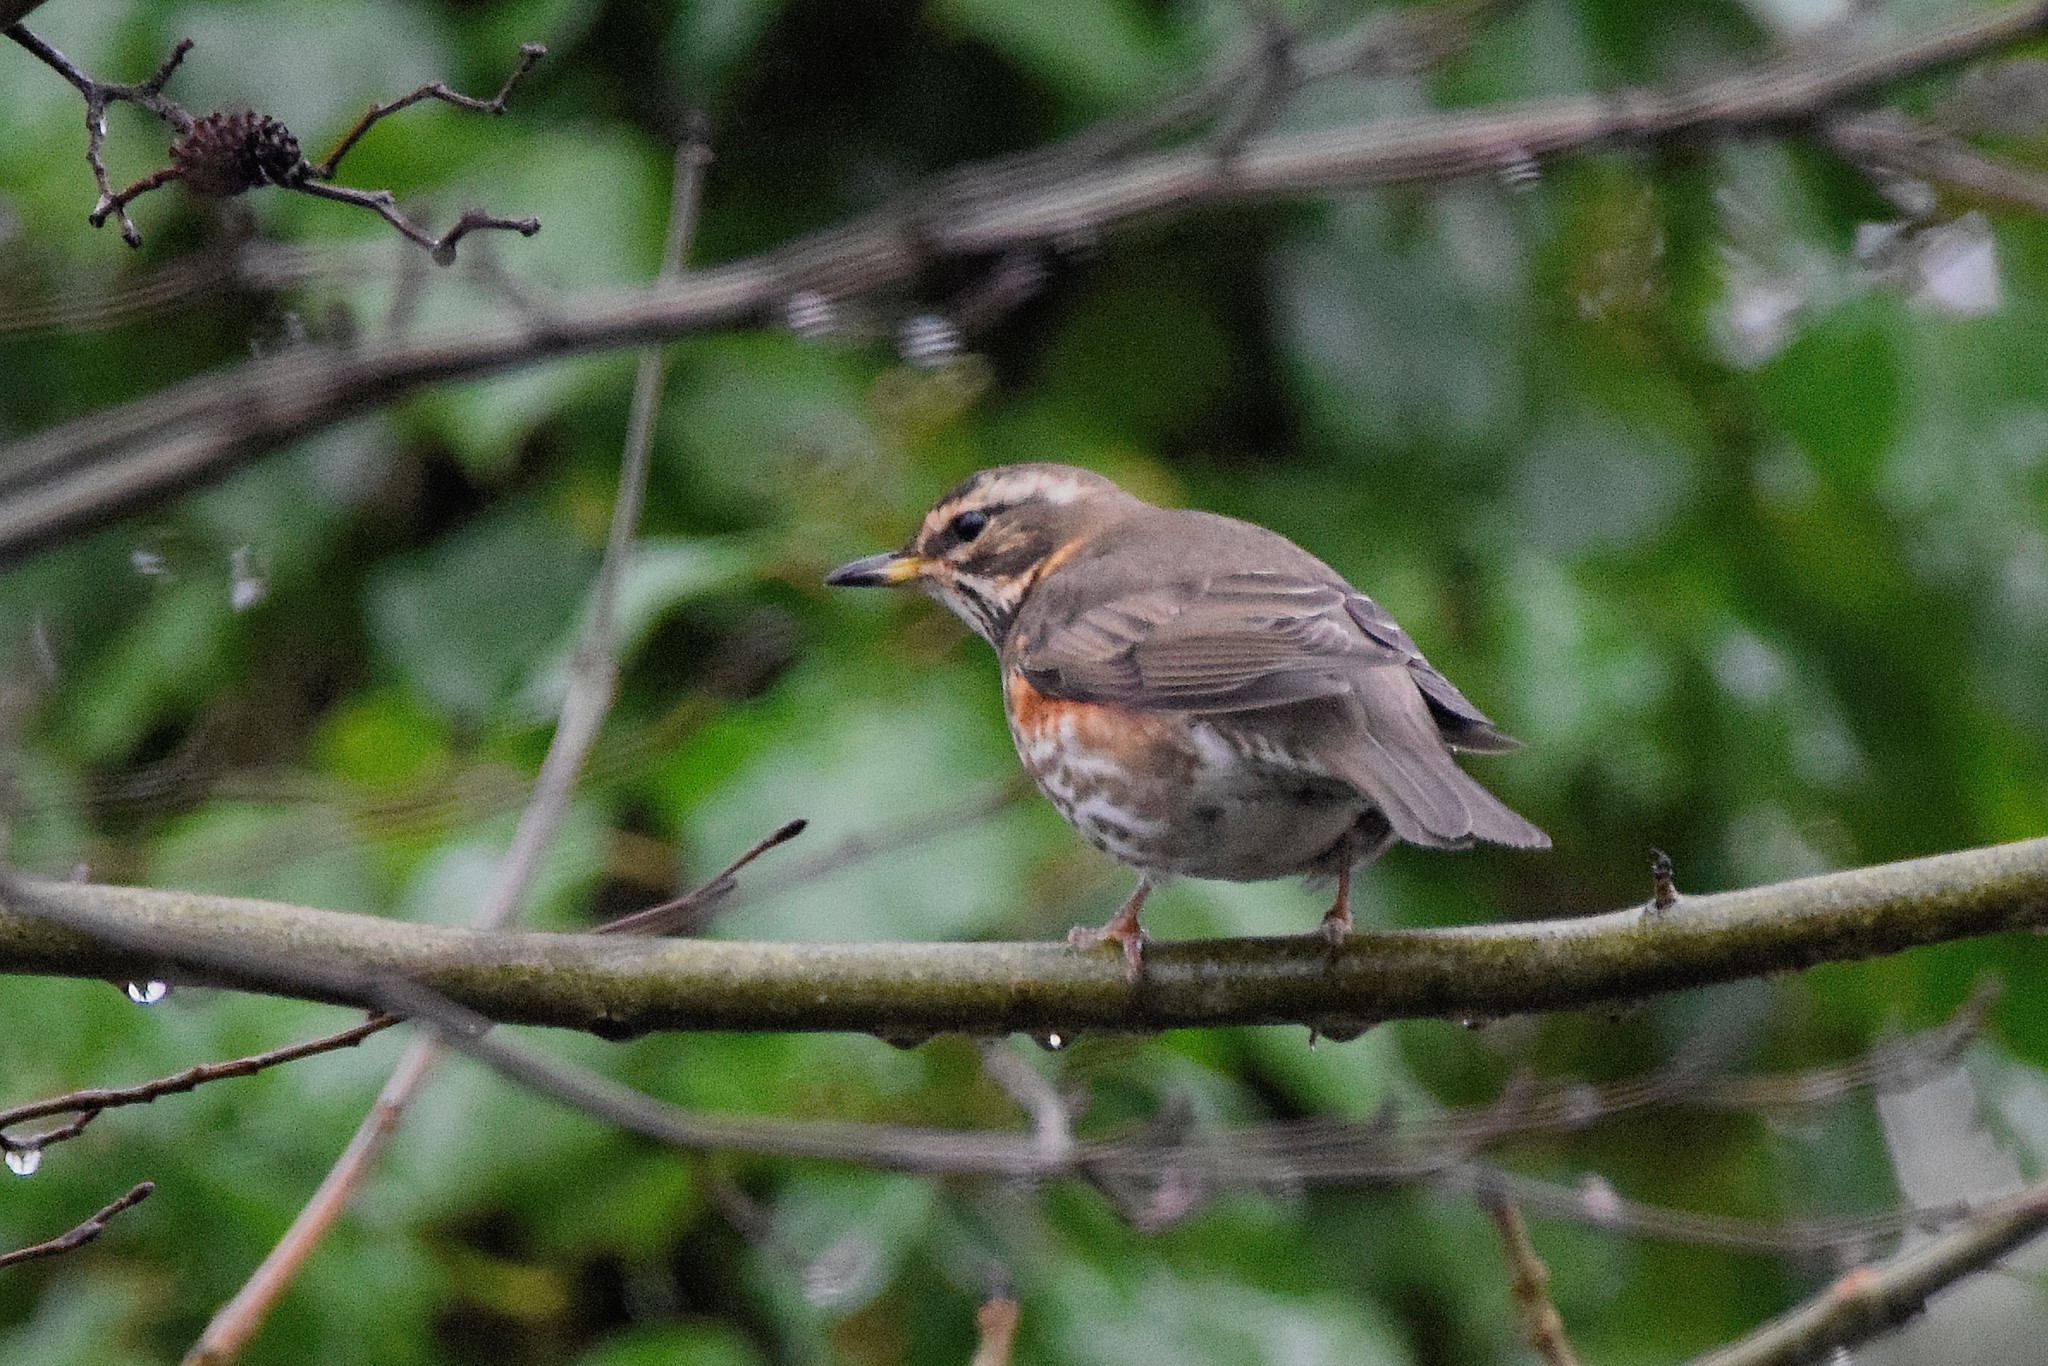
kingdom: Animalia
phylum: Chordata
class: Aves
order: Passeriformes
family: Turdidae
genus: Turdus
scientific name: Turdus iliacus
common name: Redwing
